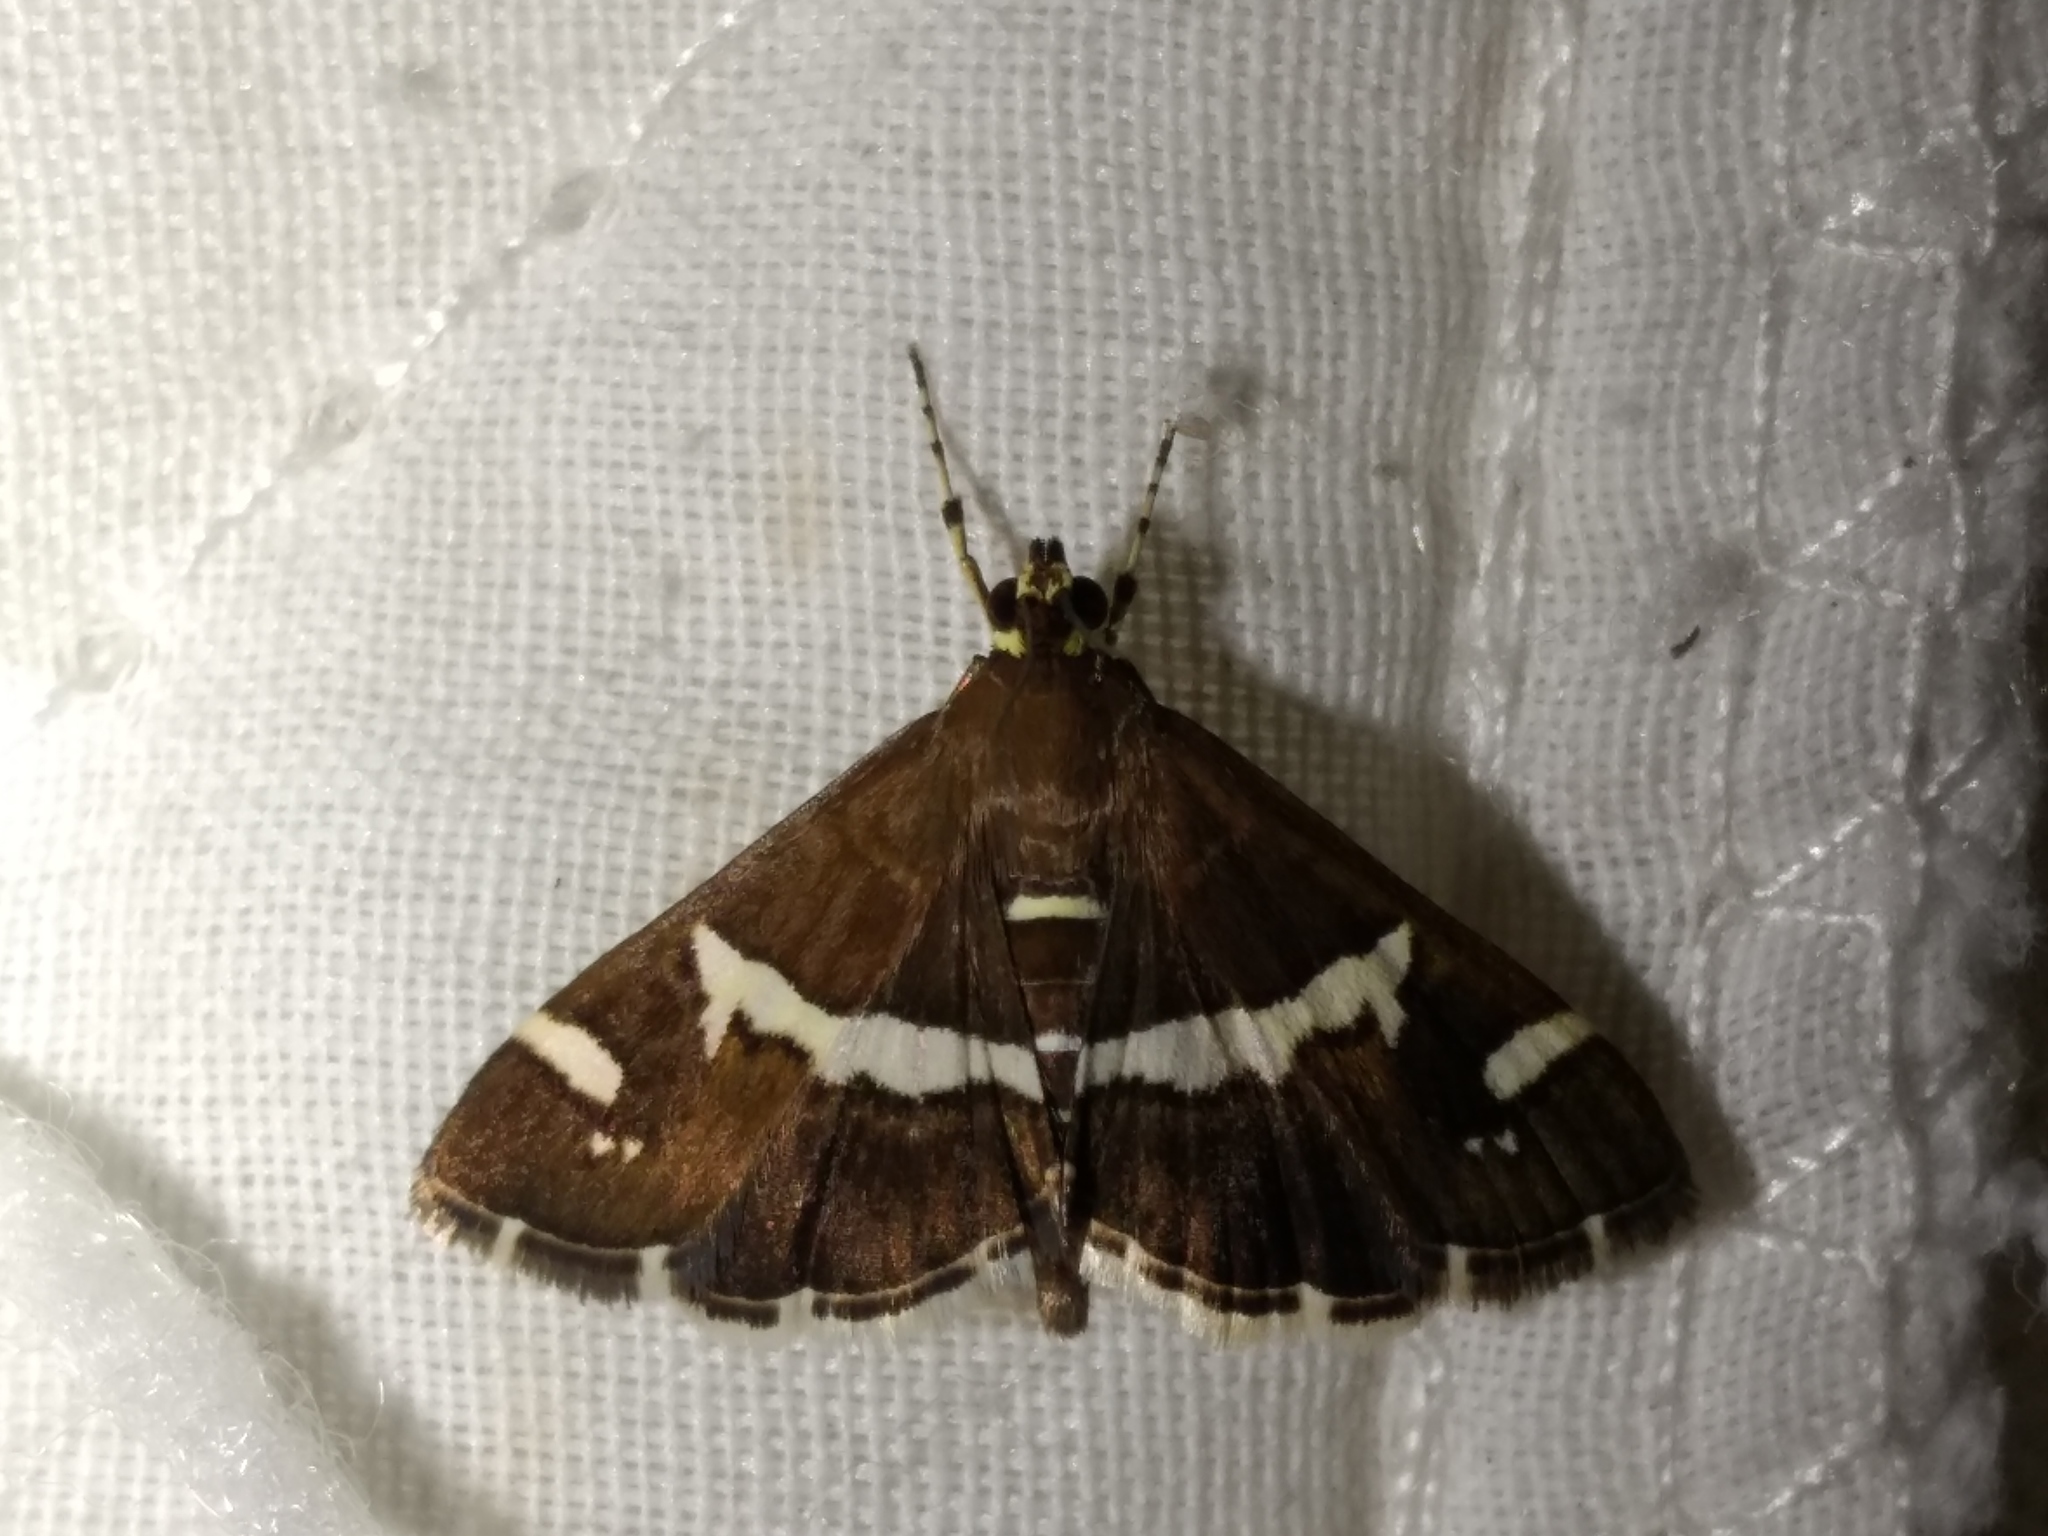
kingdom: Animalia
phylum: Arthropoda
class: Insecta
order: Lepidoptera
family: Crambidae
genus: Spoladea
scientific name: Spoladea recurvalis
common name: Beet webworm moth
